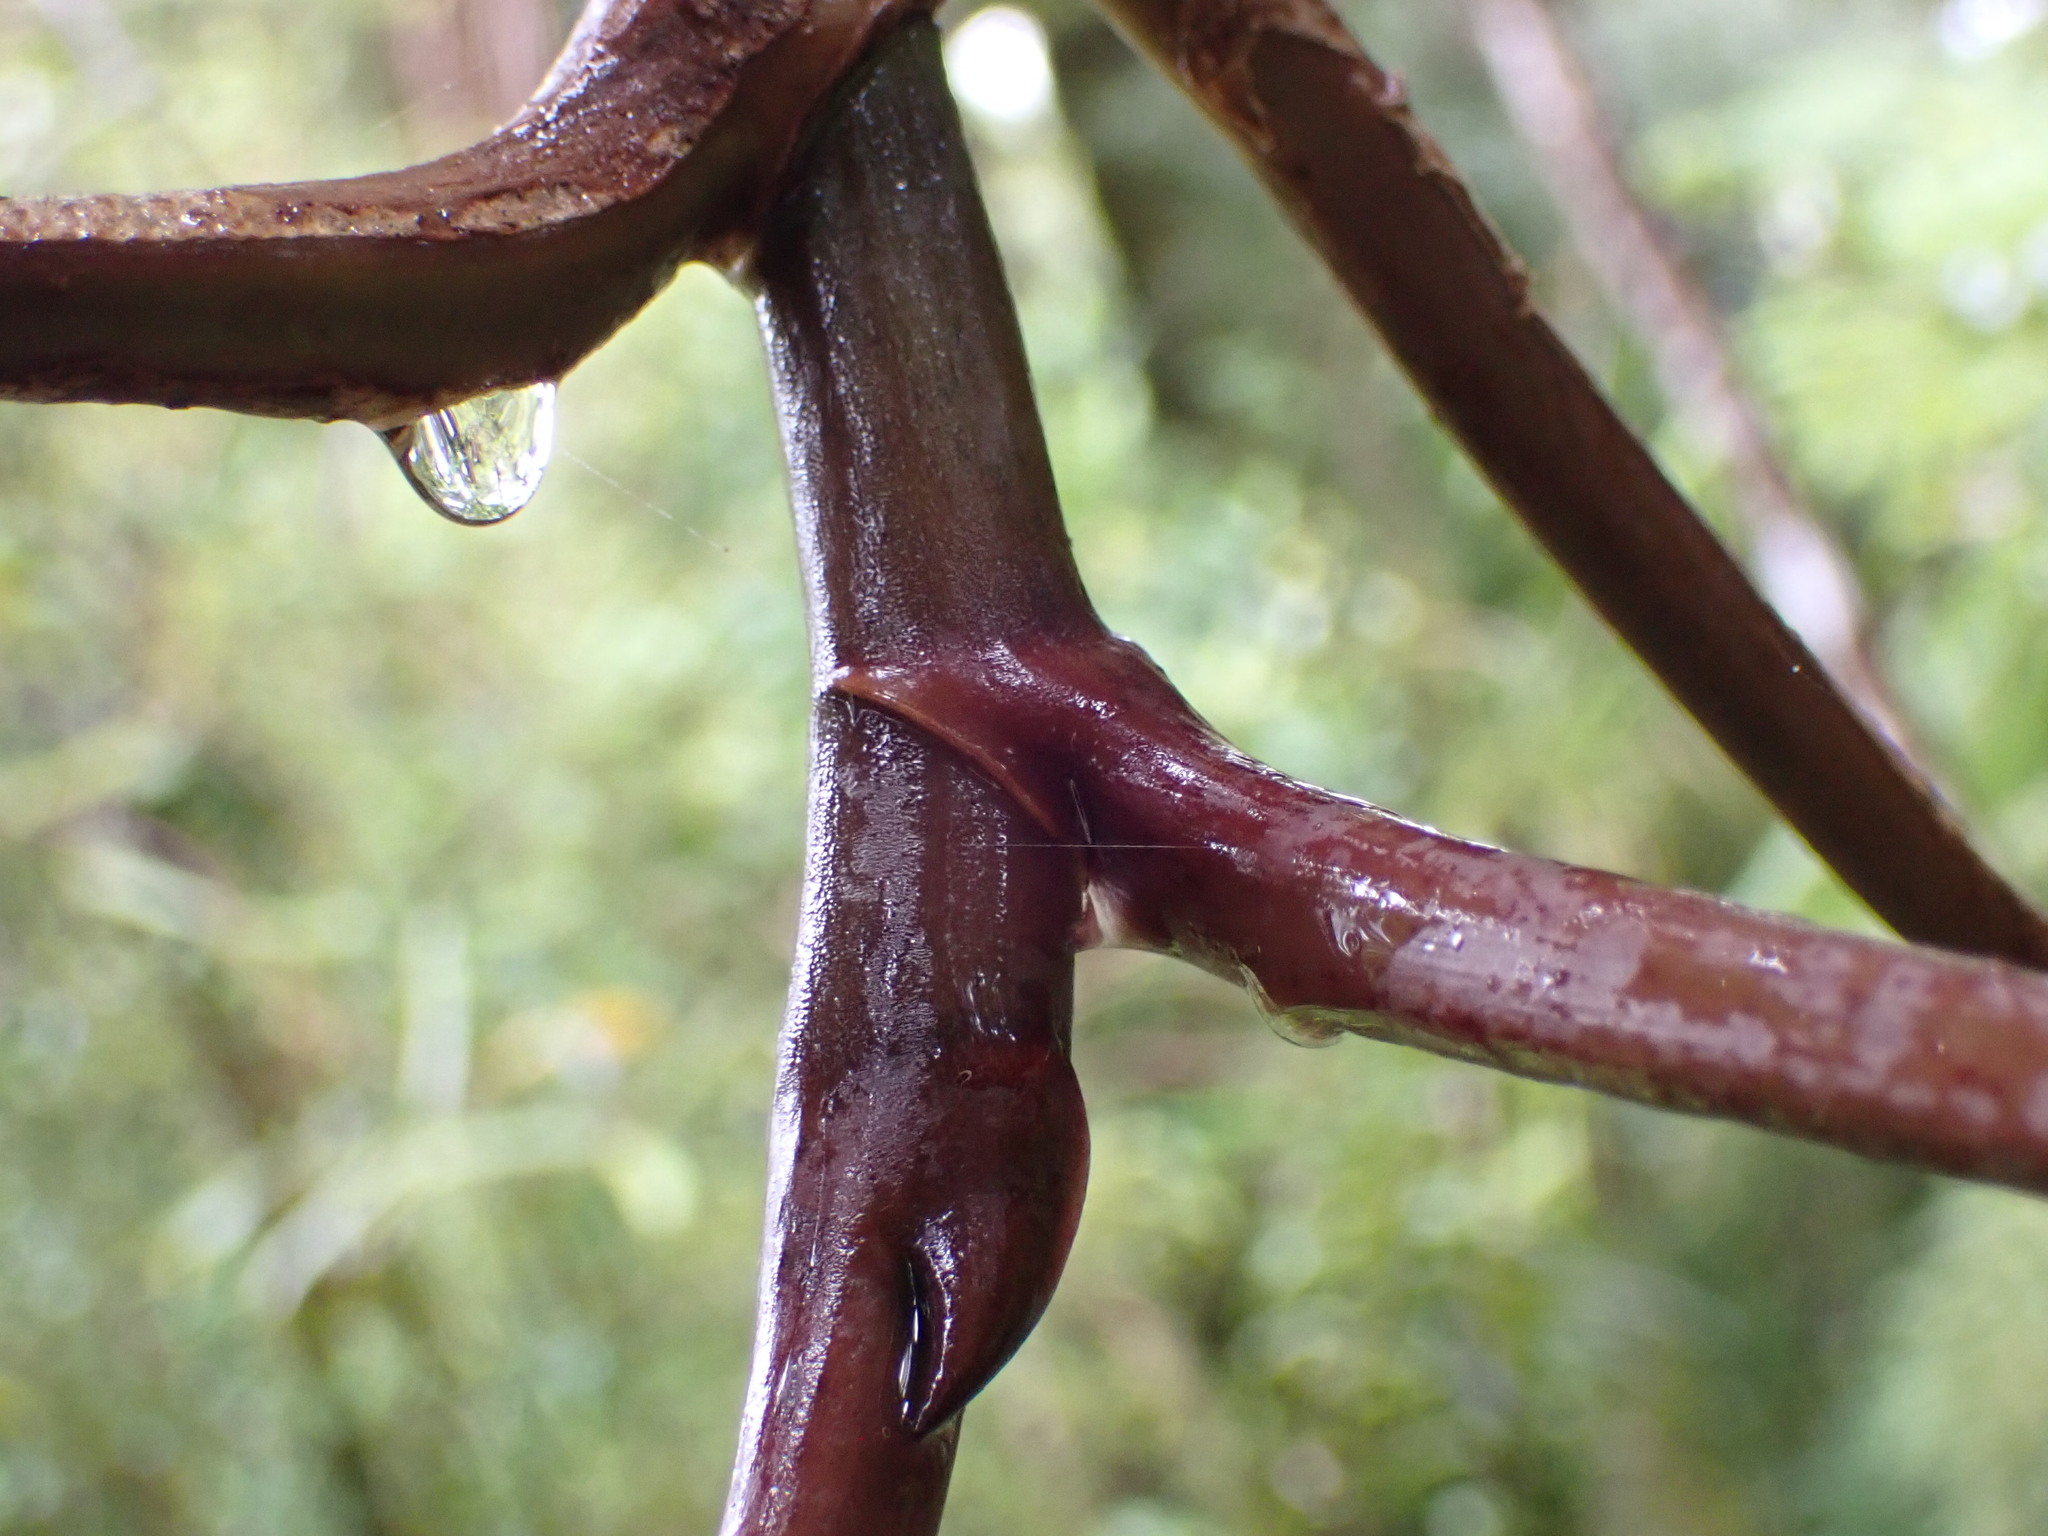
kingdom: Plantae
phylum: Tracheophyta
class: Magnoliopsida
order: Apiales
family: Araliaceae
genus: Neopanax
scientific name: Neopanax laetus
